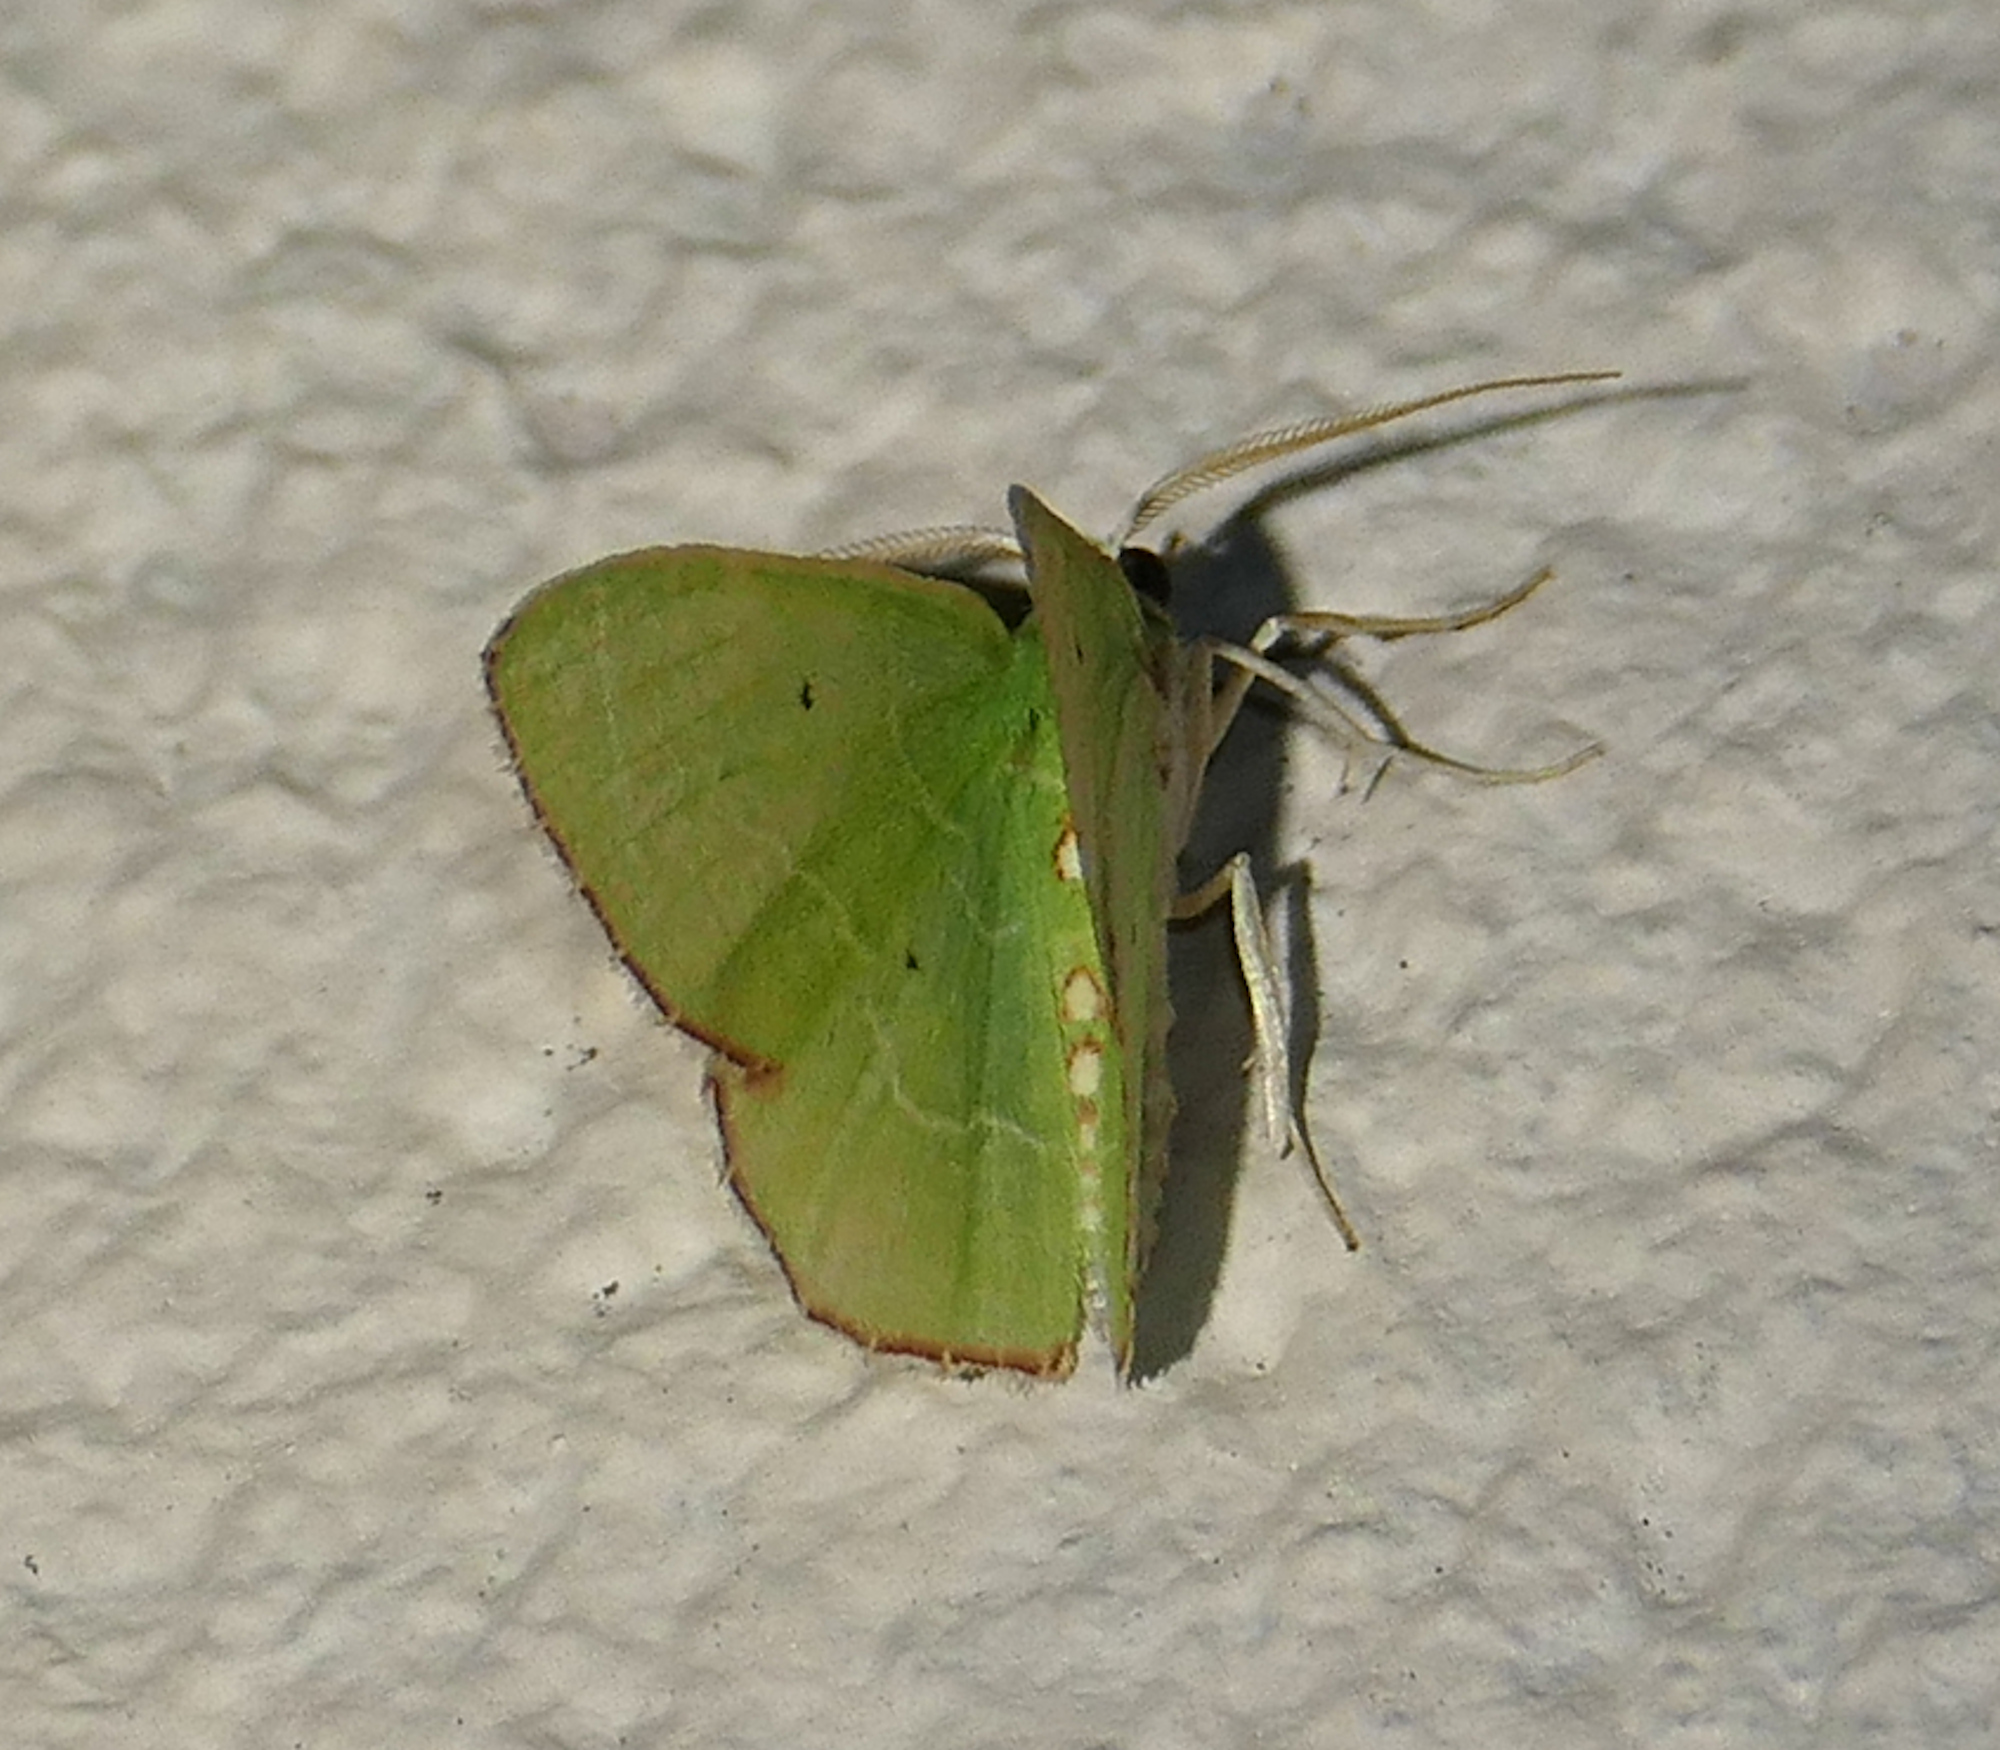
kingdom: Animalia
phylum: Arthropoda
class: Insecta
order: Lepidoptera
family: Geometridae
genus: Nemoria
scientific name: Nemoria lixaria
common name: Red-bordered emerald
